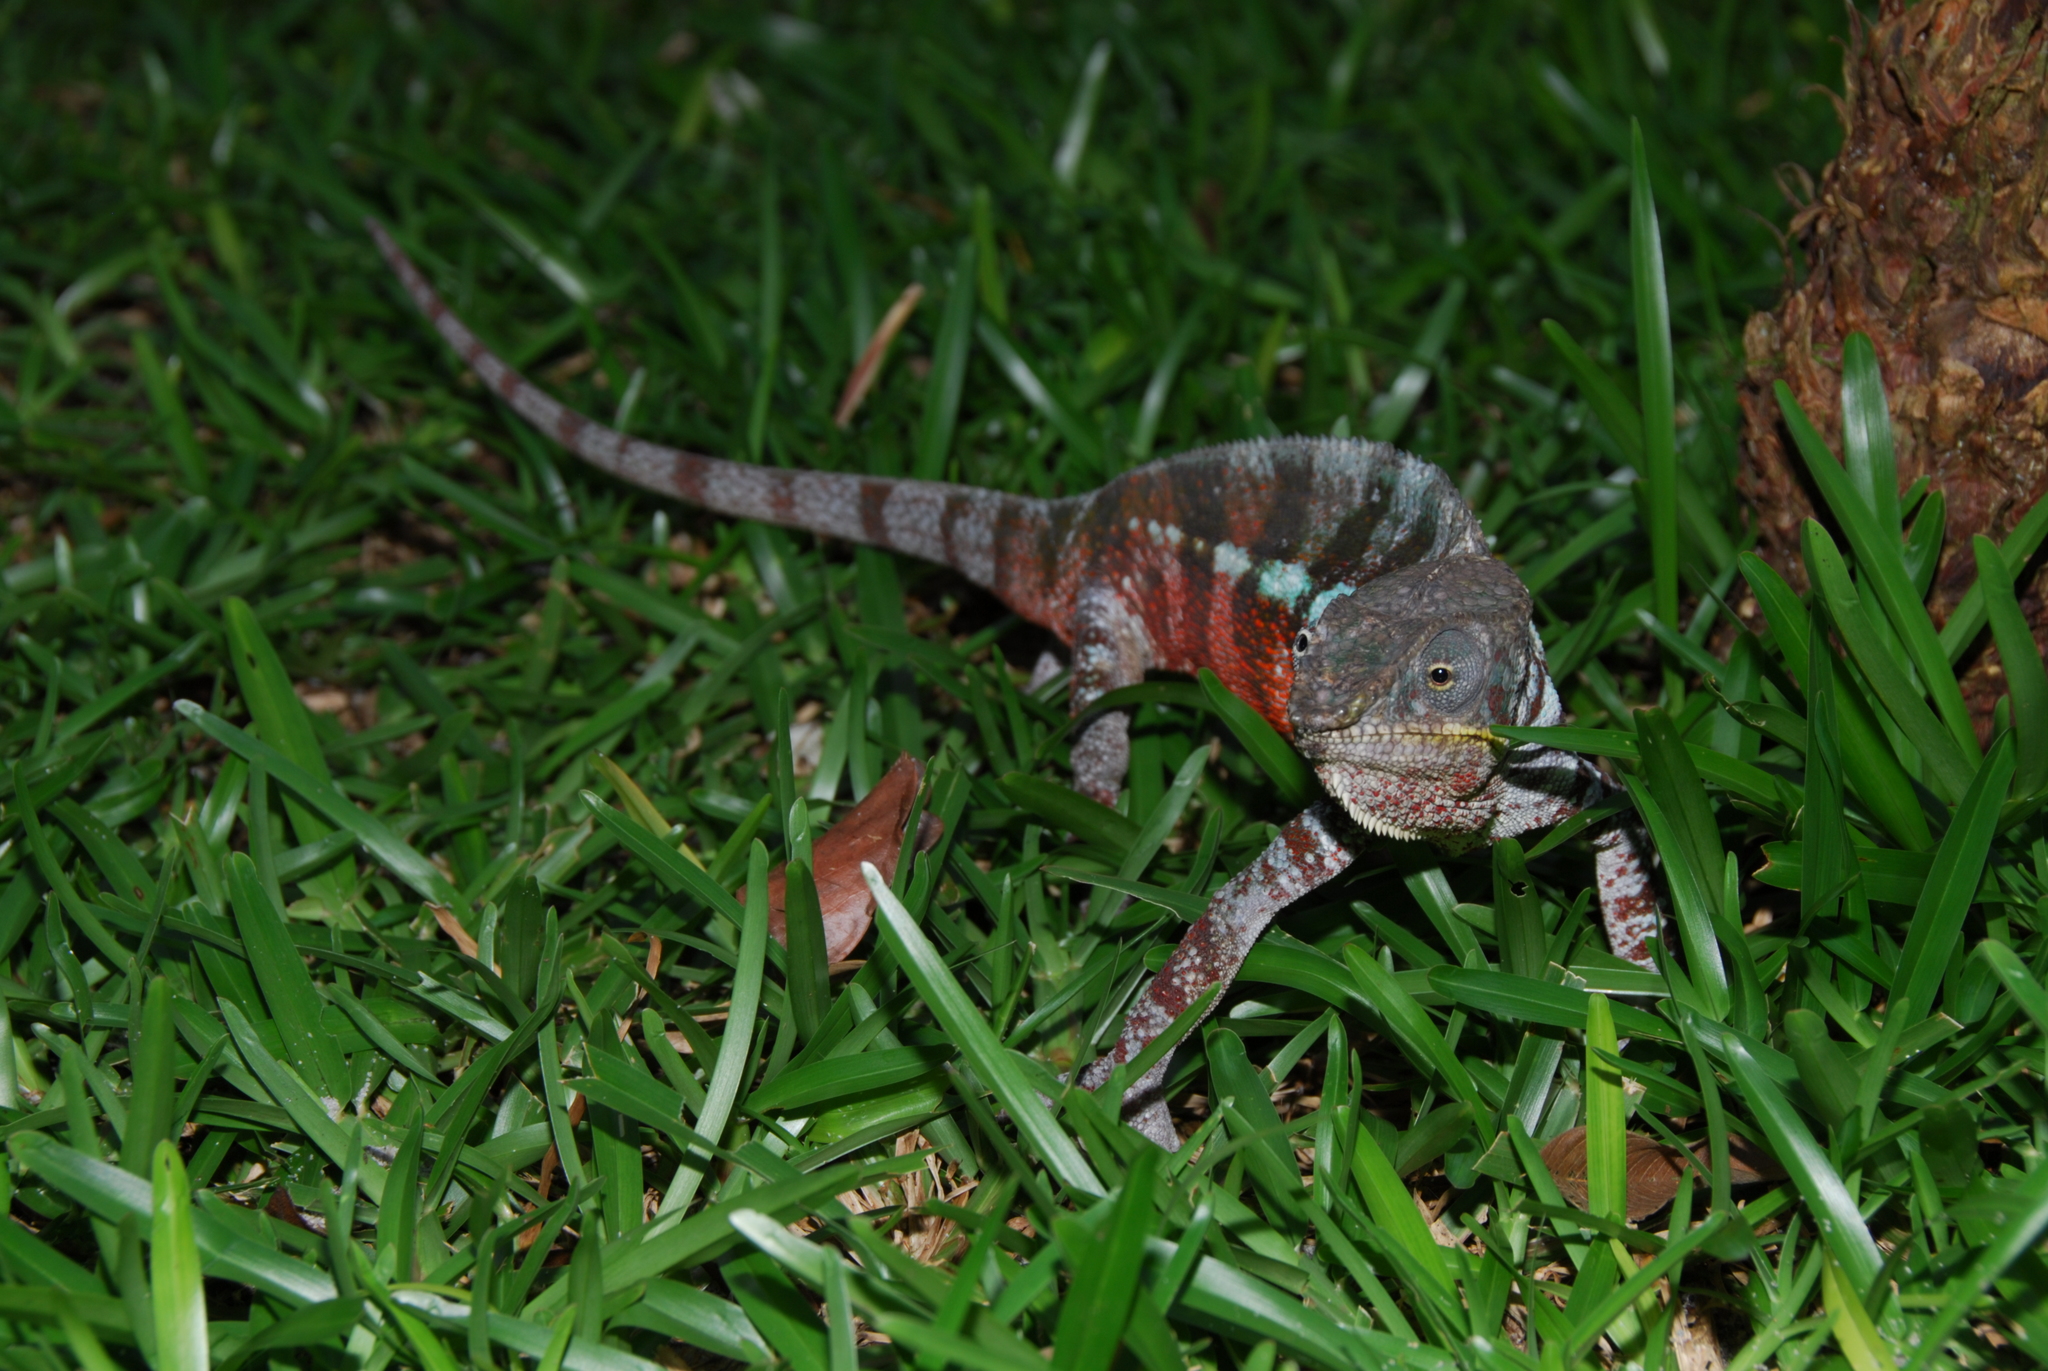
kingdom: Animalia
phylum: Chordata
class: Squamata
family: Chamaeleonidae
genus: Furcifer
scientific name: Furcifer pardalis
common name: Panther chameleon
